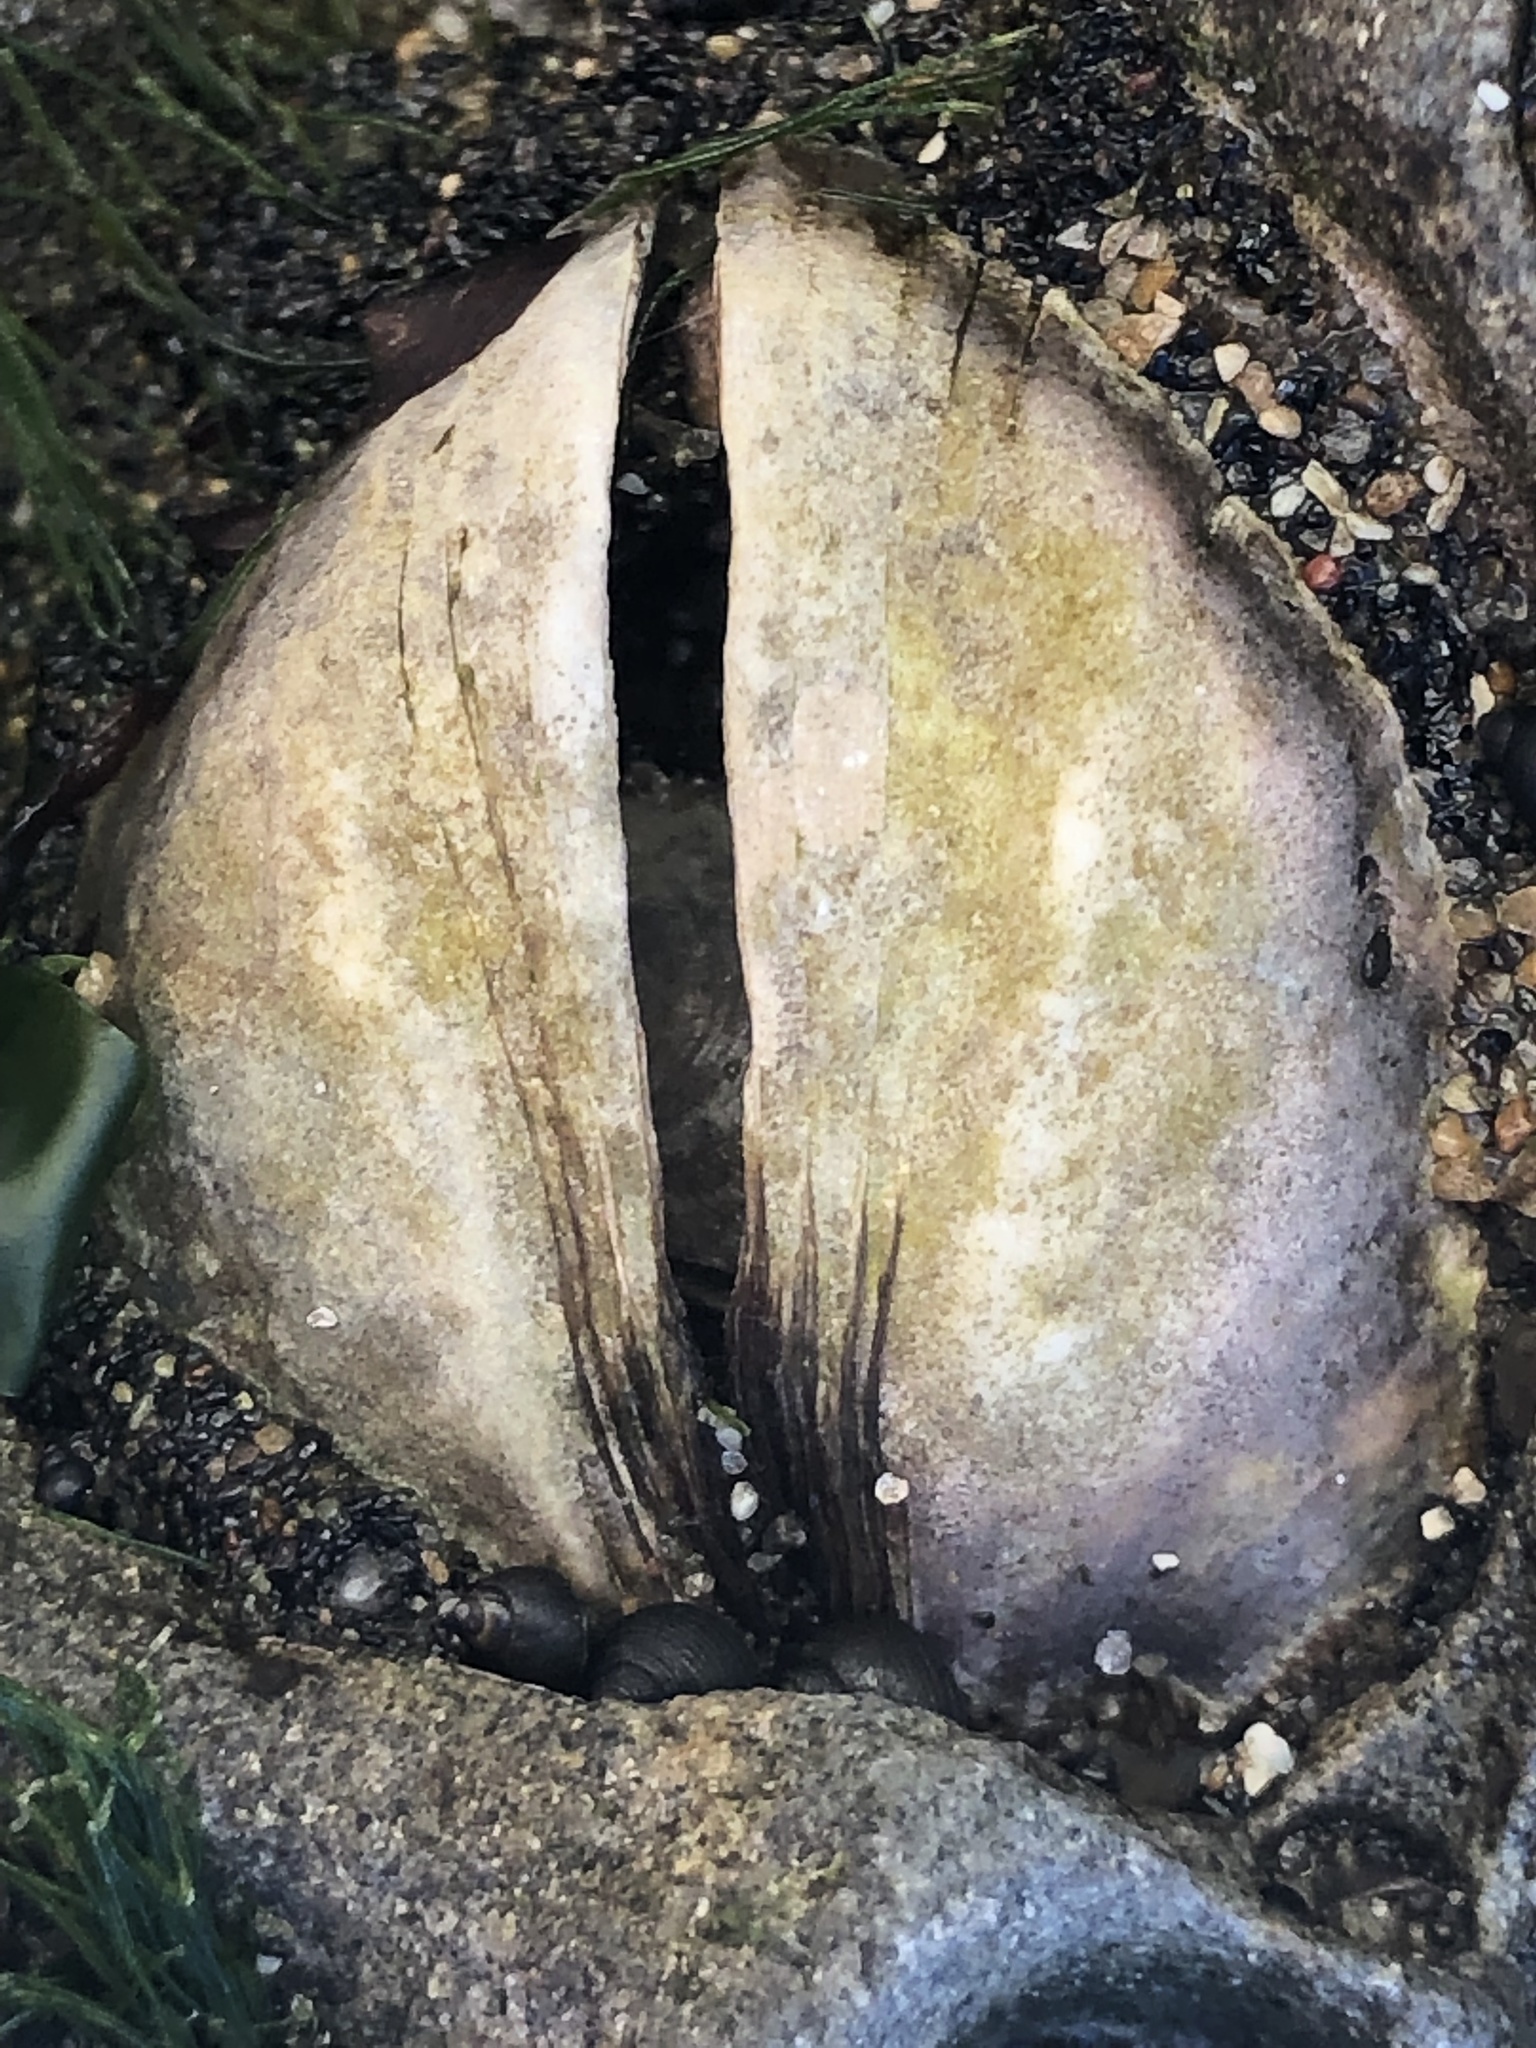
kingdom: Animalia
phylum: Mollusca
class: Bivalvia
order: Venerida
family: Veneridae
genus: Petricola
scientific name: Petricola carditoides
